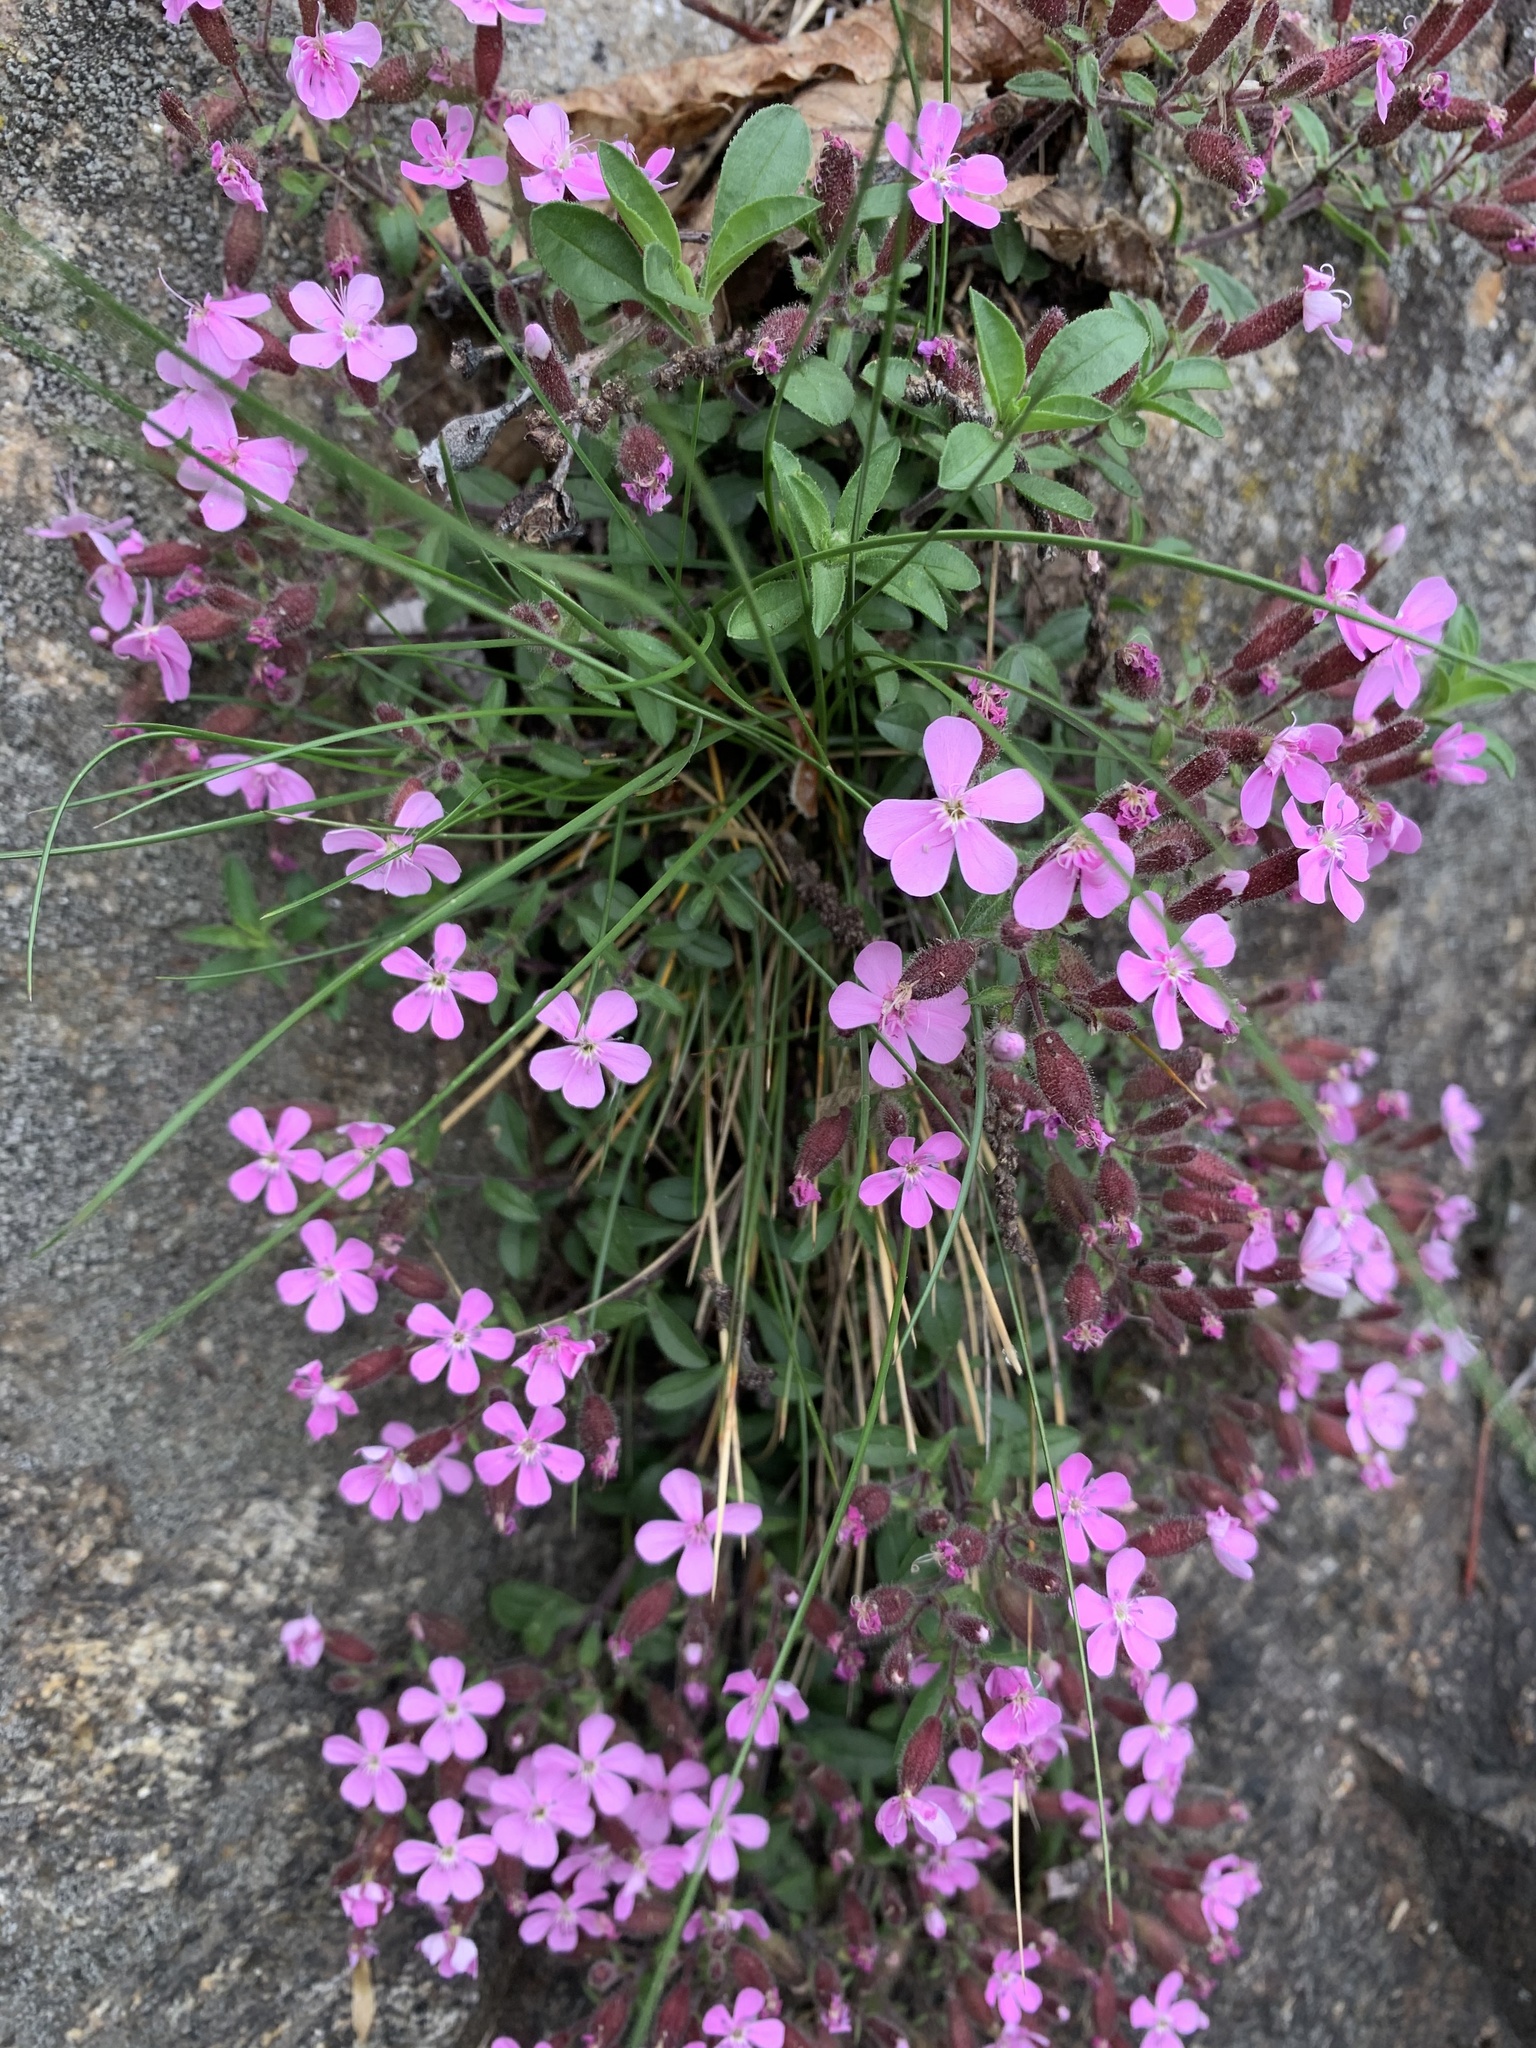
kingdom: Plantae
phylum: Tracheophyta
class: Magnoliopsida
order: Caryophyllales
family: Caryophyllaceae
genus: Saponaria
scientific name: Saponaria ocymoides
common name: Rock soapwort
